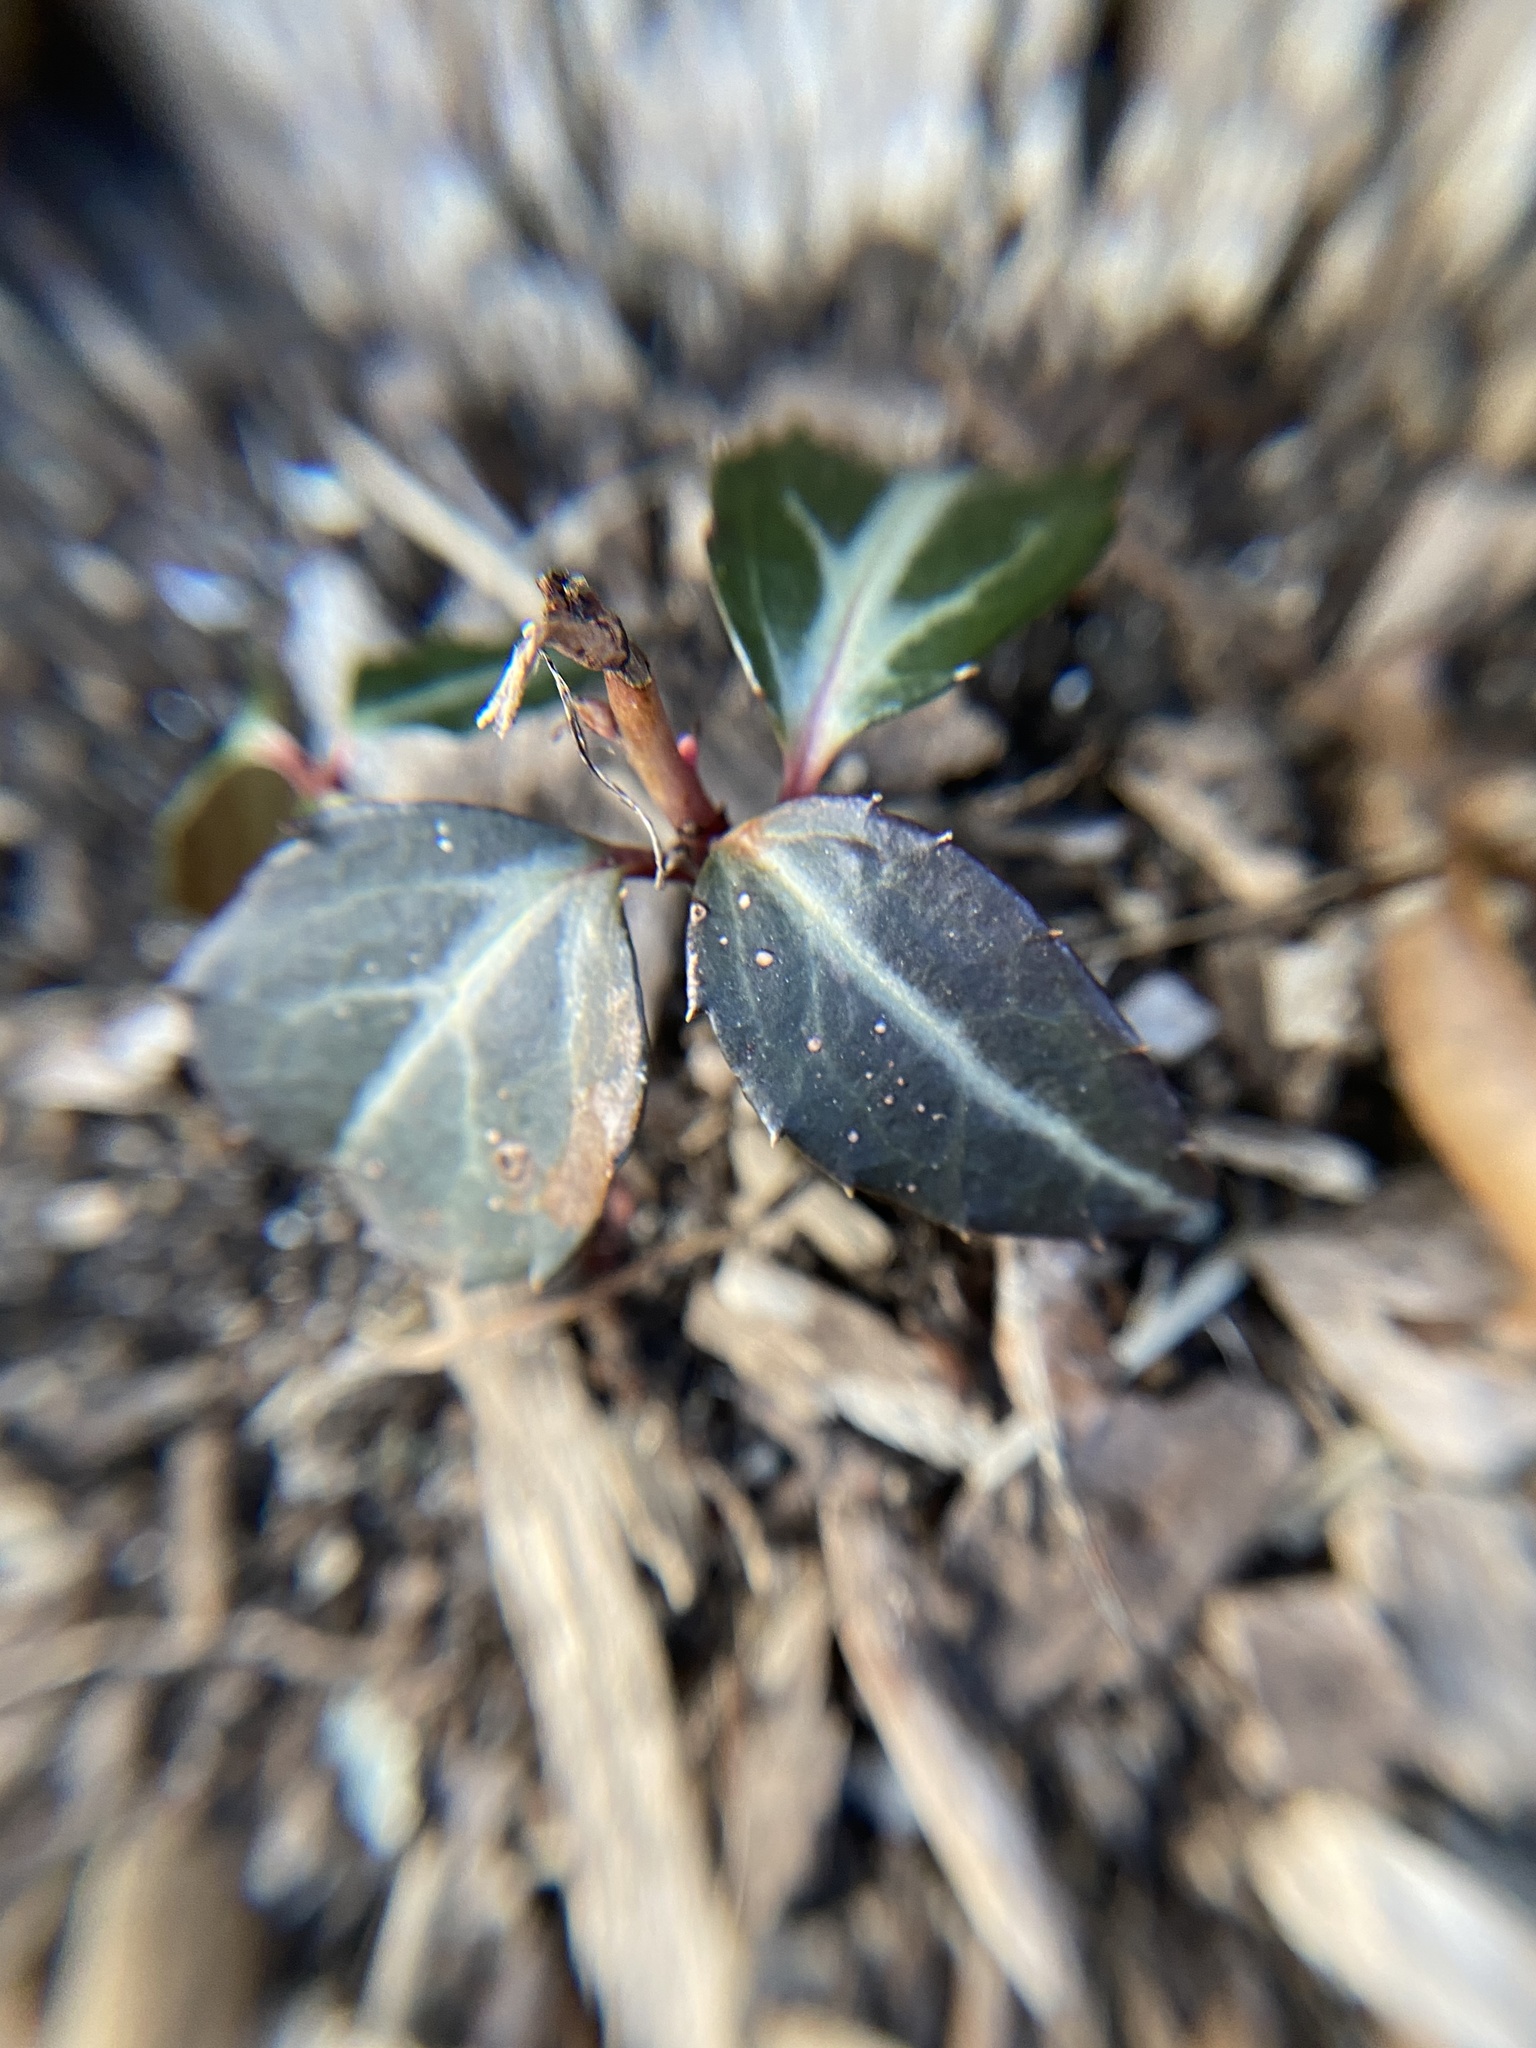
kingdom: Plantae
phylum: Tracheophyta
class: Magnoliopsida
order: Ericales
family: Ericaceae
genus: Chimaphila
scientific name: Chimaphila maculata
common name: Spotted pipsissewa
